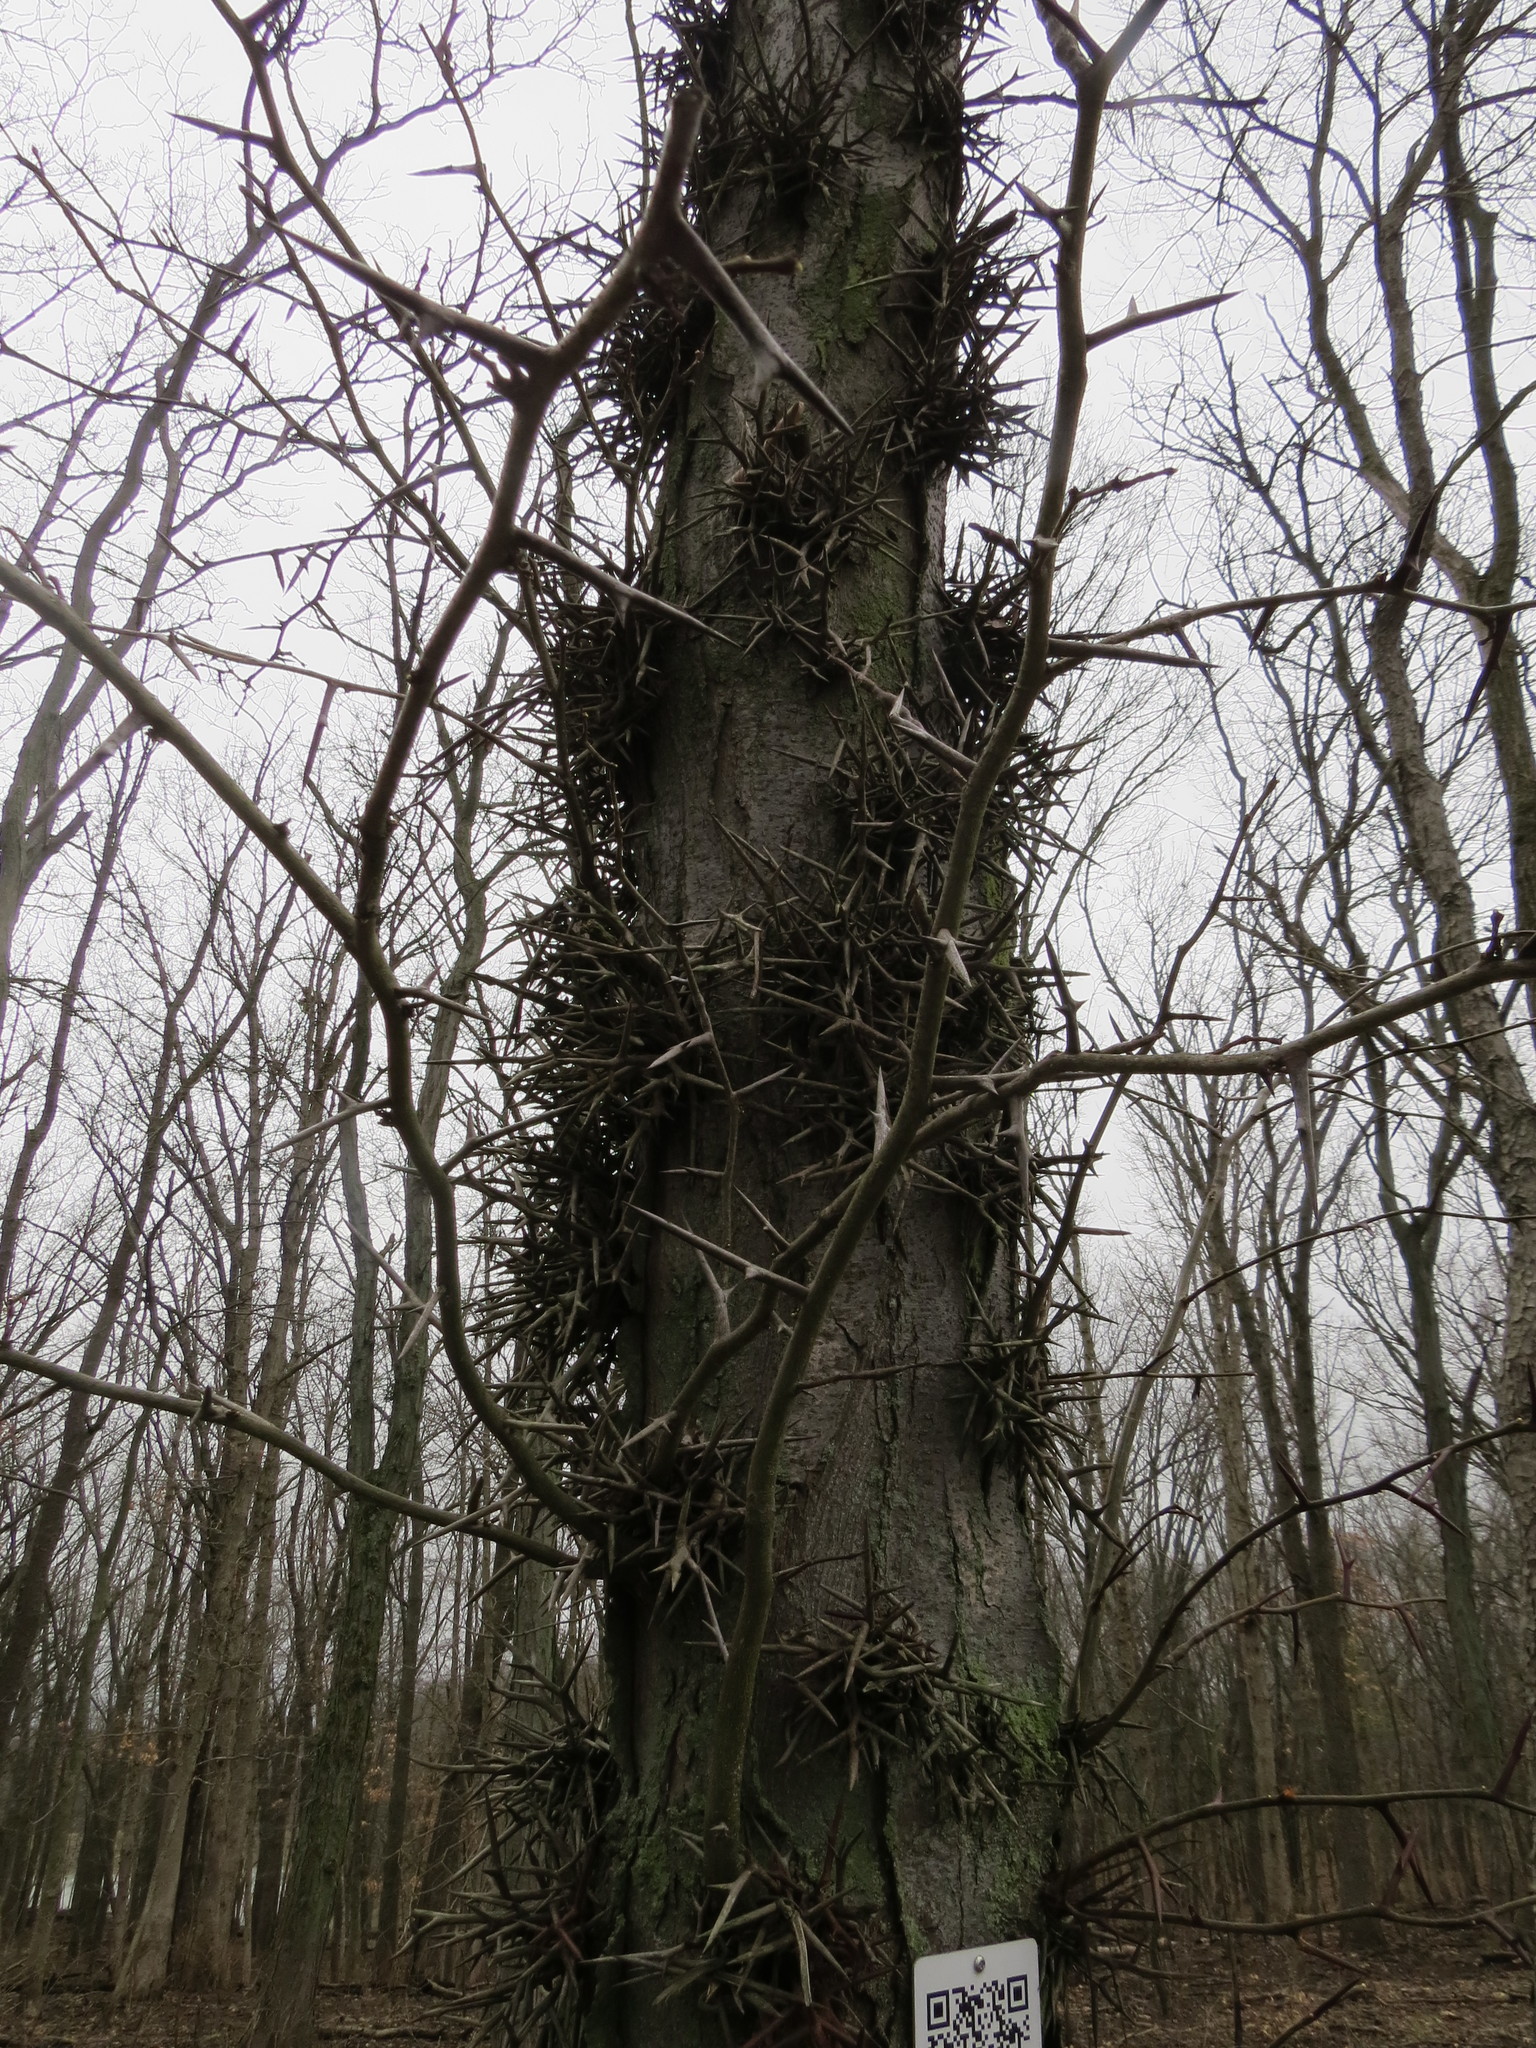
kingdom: Plantae
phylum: Tracheophyta
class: Magnoliopsida
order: Fabales
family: Fabaceae
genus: Gleditsia
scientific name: Gleditsia triacanthos
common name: Common honeylocust
